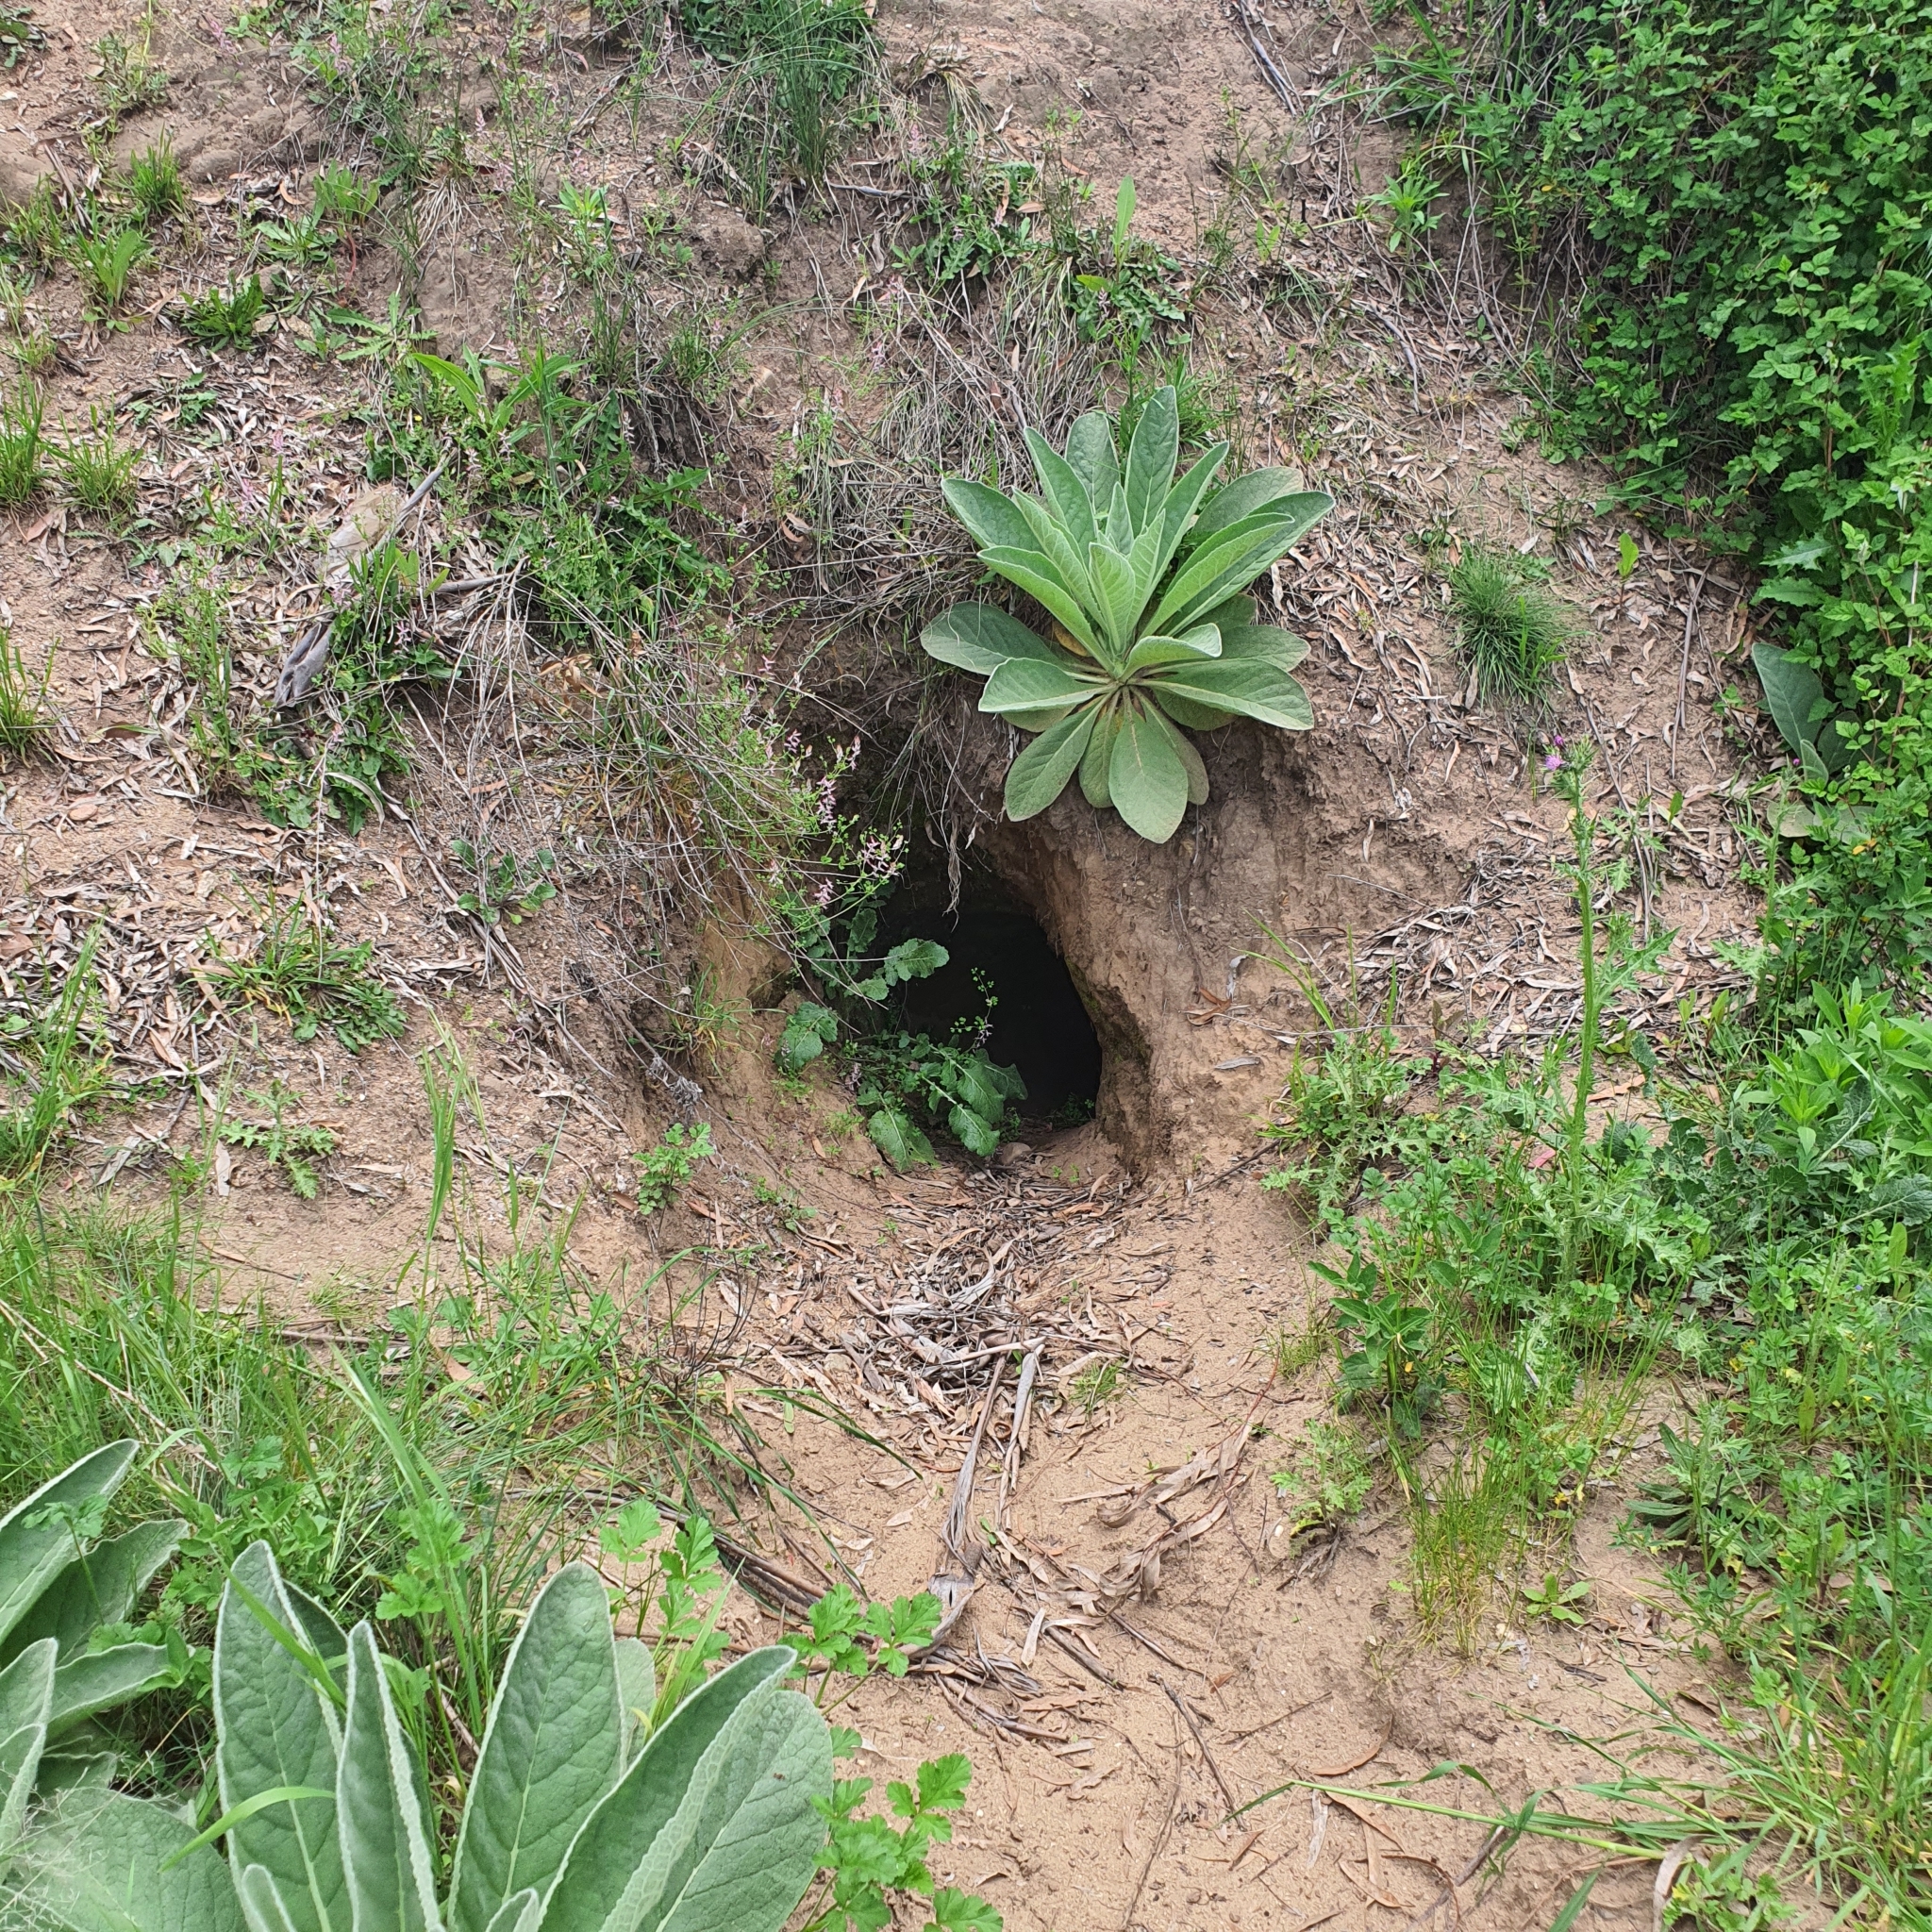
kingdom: Animalia
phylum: Chordata
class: Mammalia
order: Diprotodontia
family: Vombatidae
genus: Vombatus
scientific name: Vombatus ursinus
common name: Common wombat
